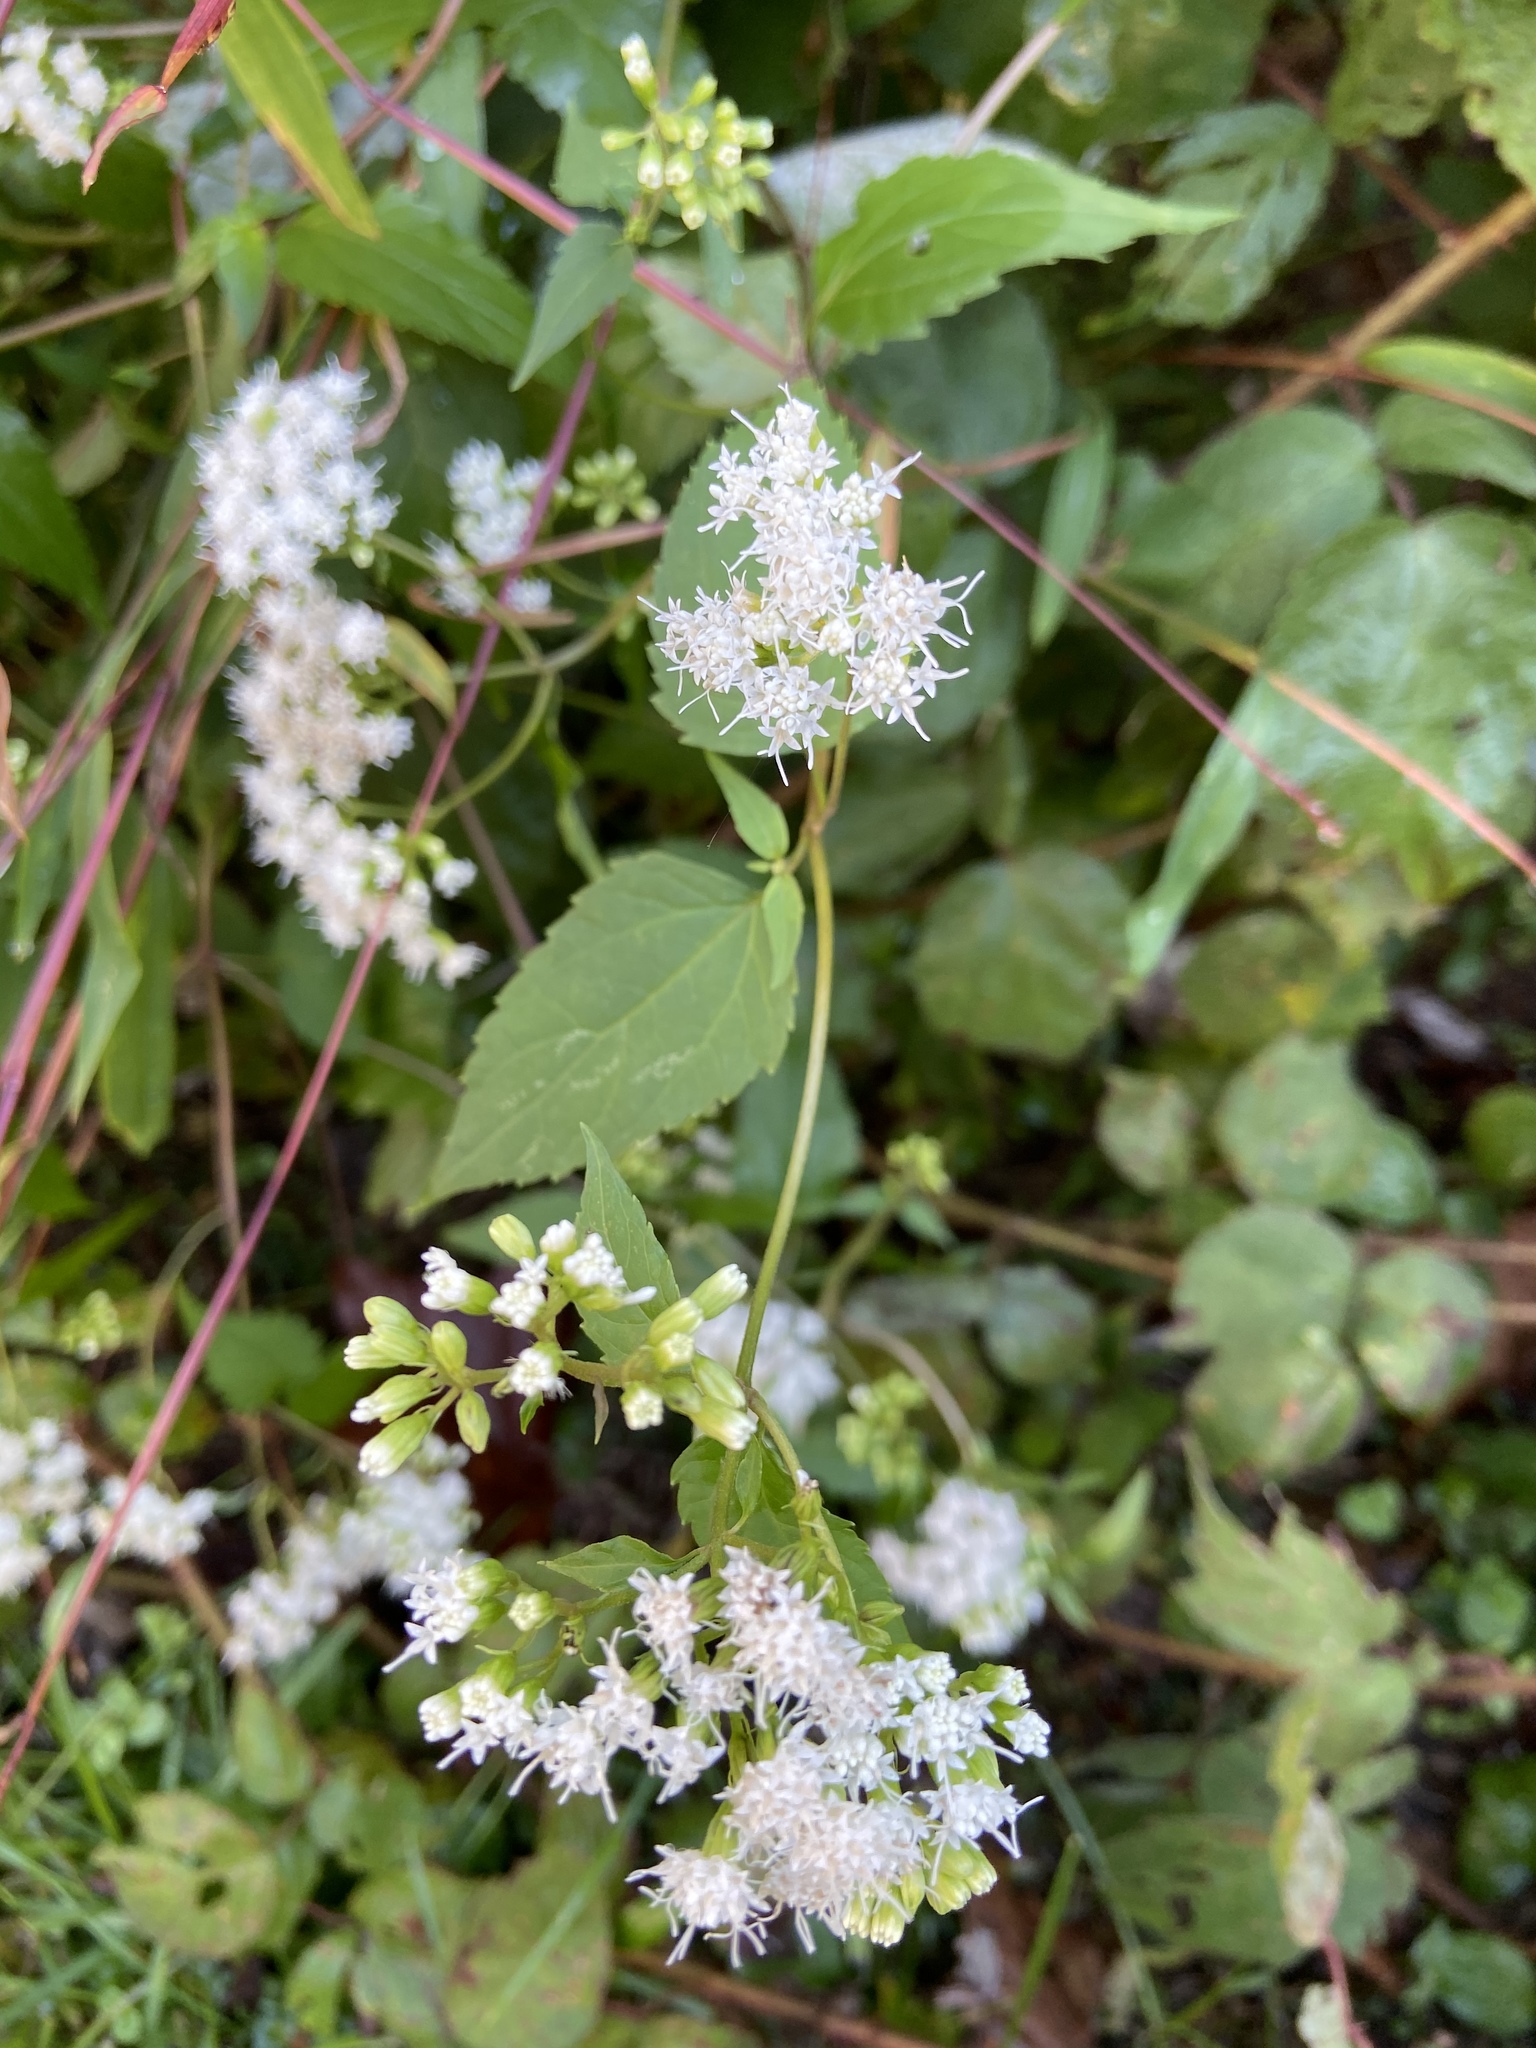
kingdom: Plantae
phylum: Tracheophyta
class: Magnoliopsida
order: Asterales
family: Asteraceae
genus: Ageratina
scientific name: Ageratina altissima
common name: White snakeroot
